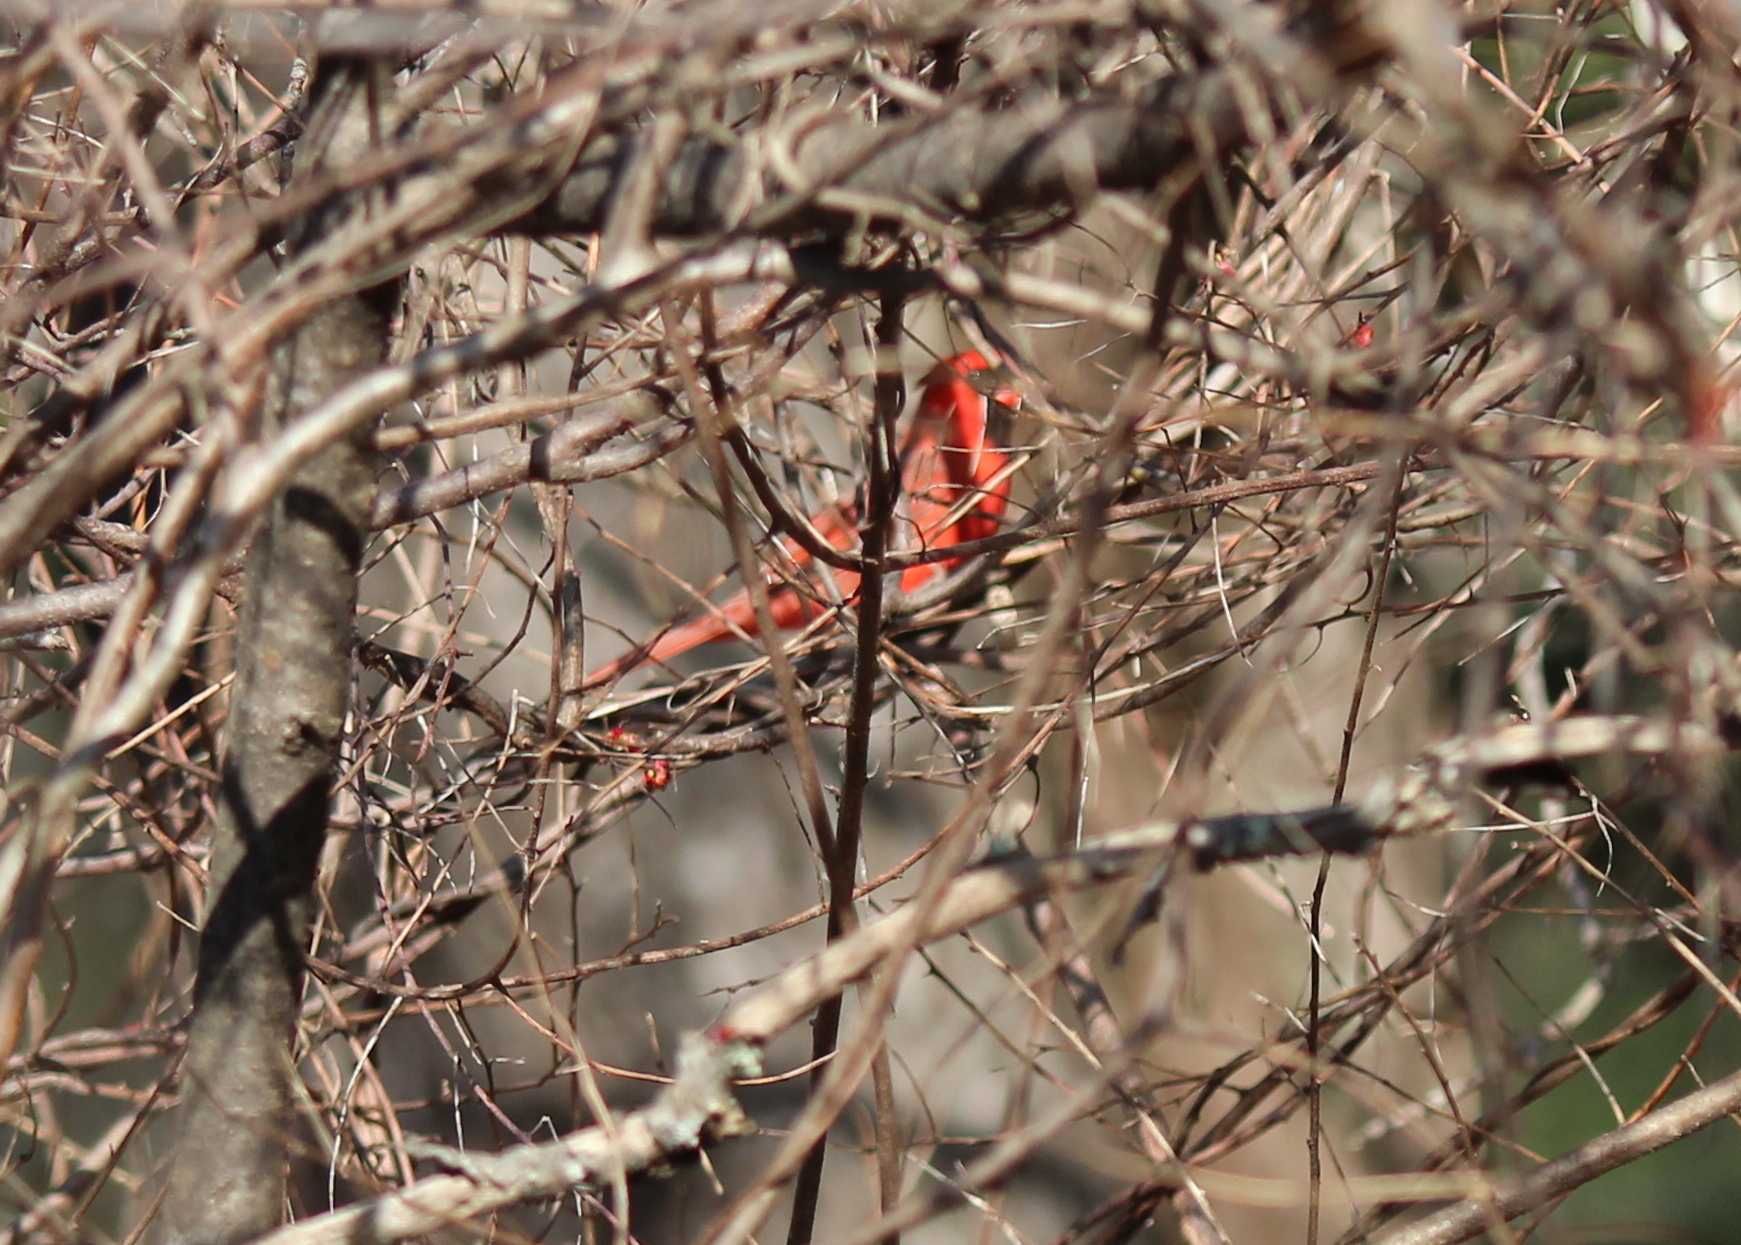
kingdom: Animalia
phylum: Chordata
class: Aves
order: Passeriformes
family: Cardinalidae
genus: Cardinalis
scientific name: Cardinalis cardinalis
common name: Northern cardinal
